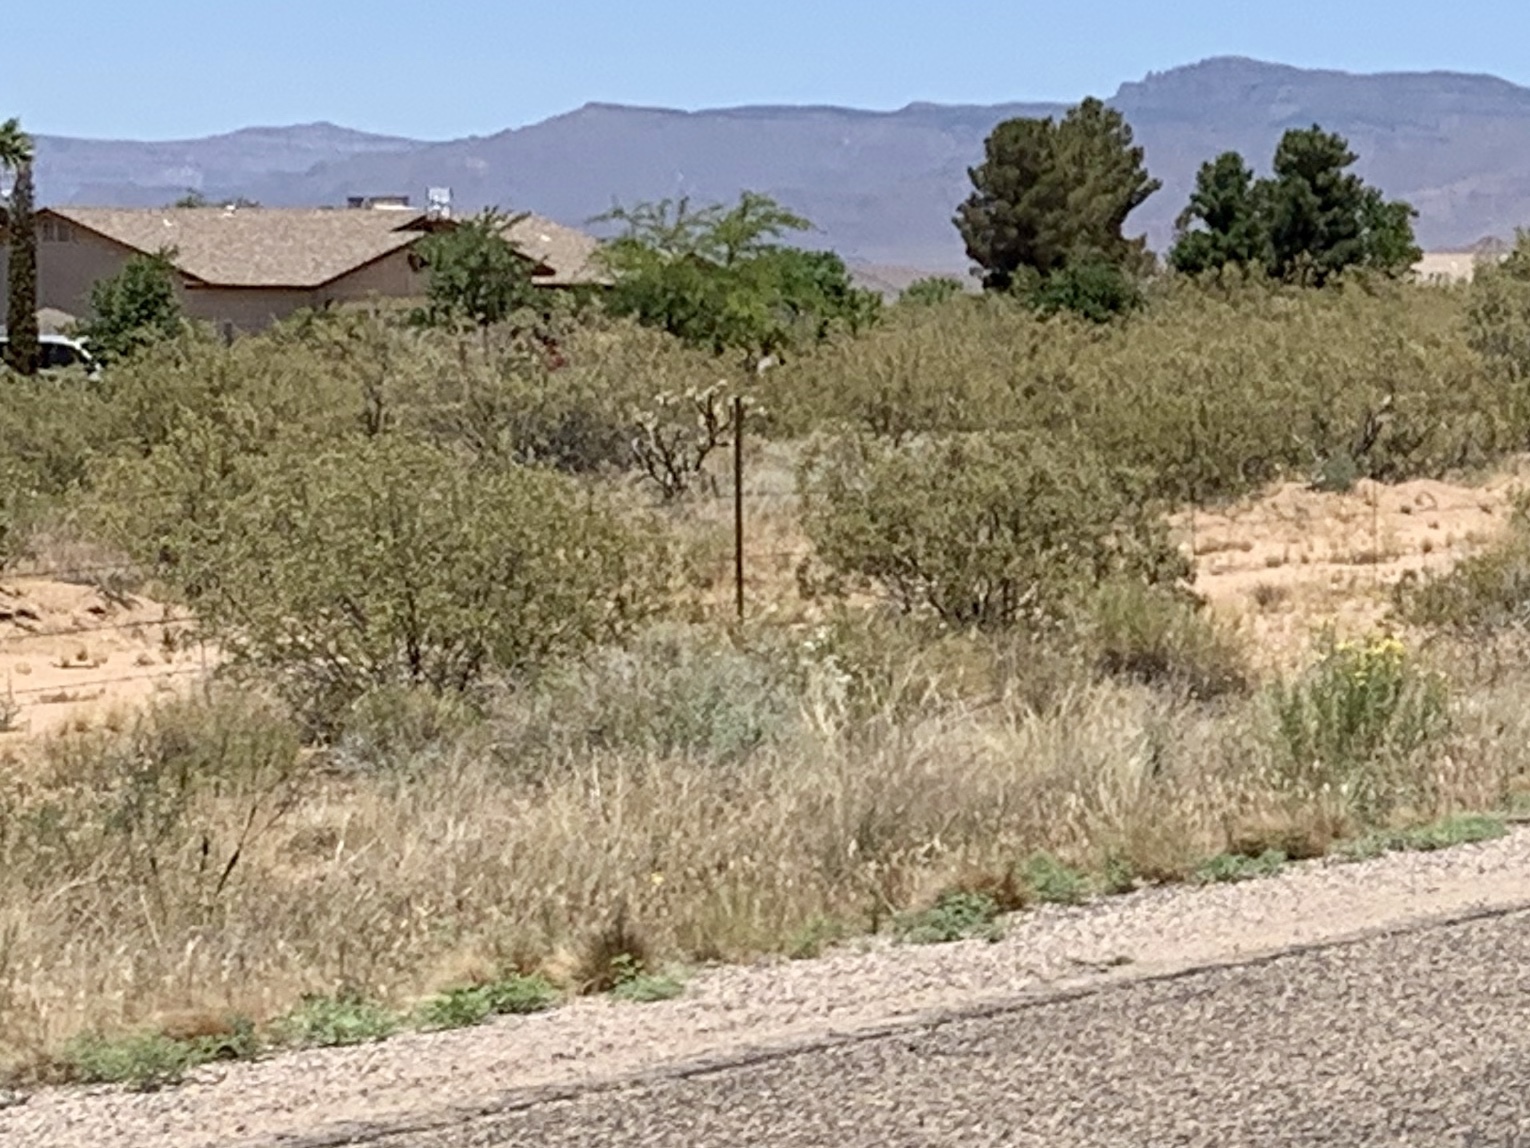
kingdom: Plantae
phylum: Tracheophyta
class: Magnoliopsida
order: Zygophyllales
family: Zygophyllaceae
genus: Larrea
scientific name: Larrea tridentata
